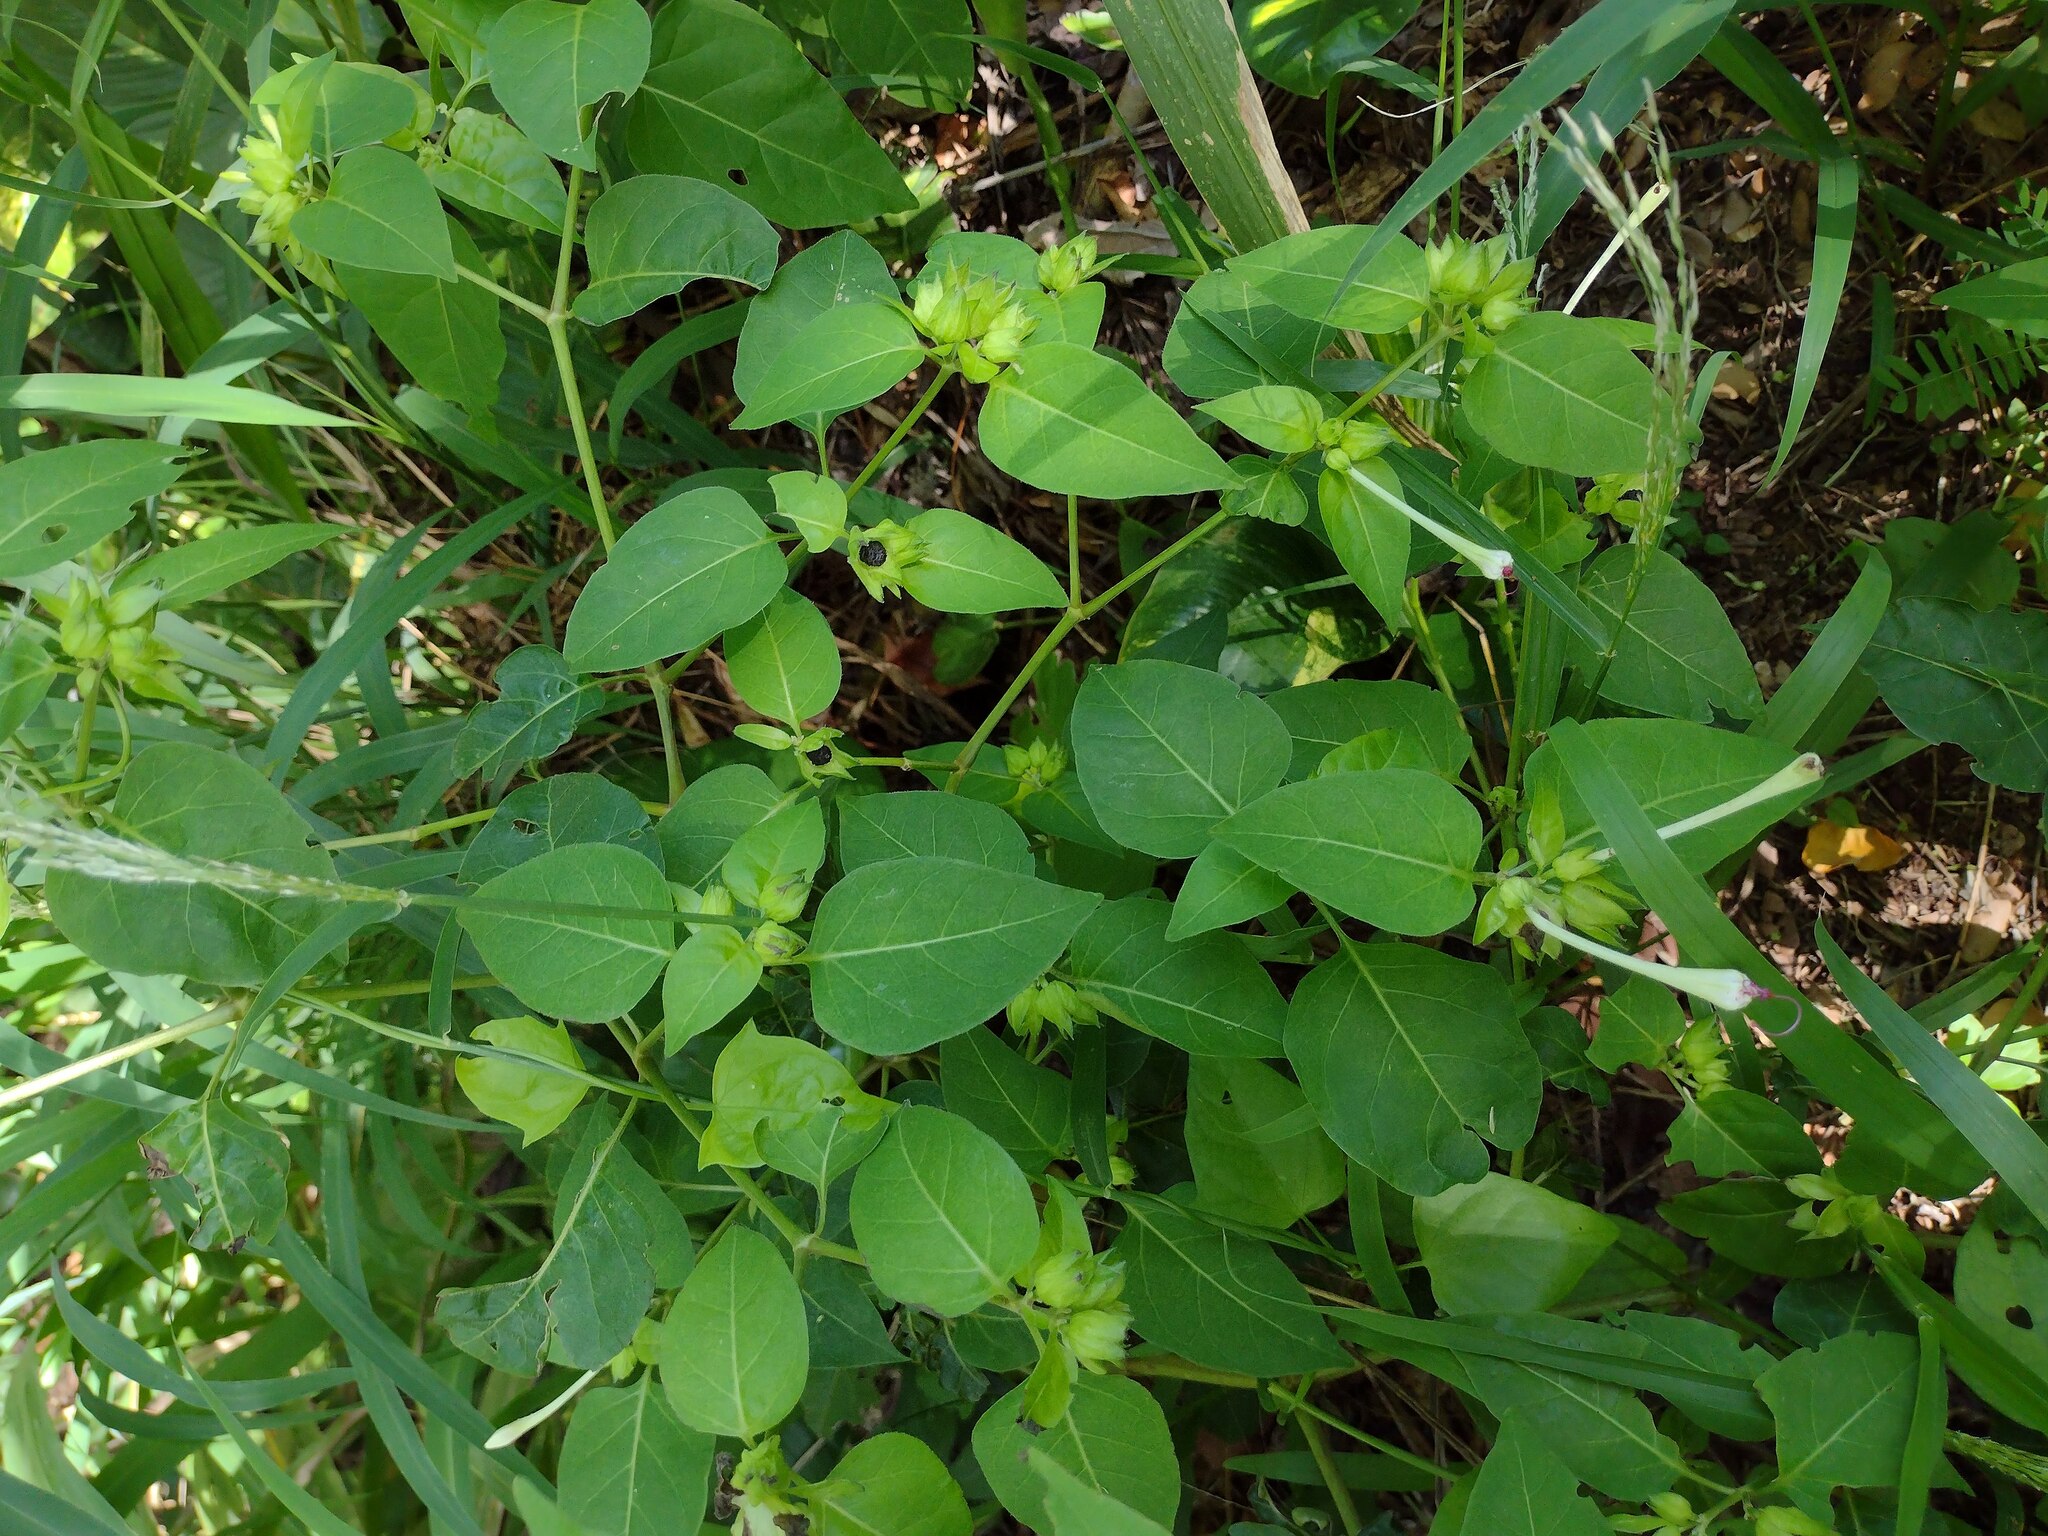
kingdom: Plantae
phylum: Tracheophyta
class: Magnoliopsida
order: Caryophyllales
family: Nyctaginaceae
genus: Mirabilis
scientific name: Mirabilis jalapa
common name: Marvel-of-peru
